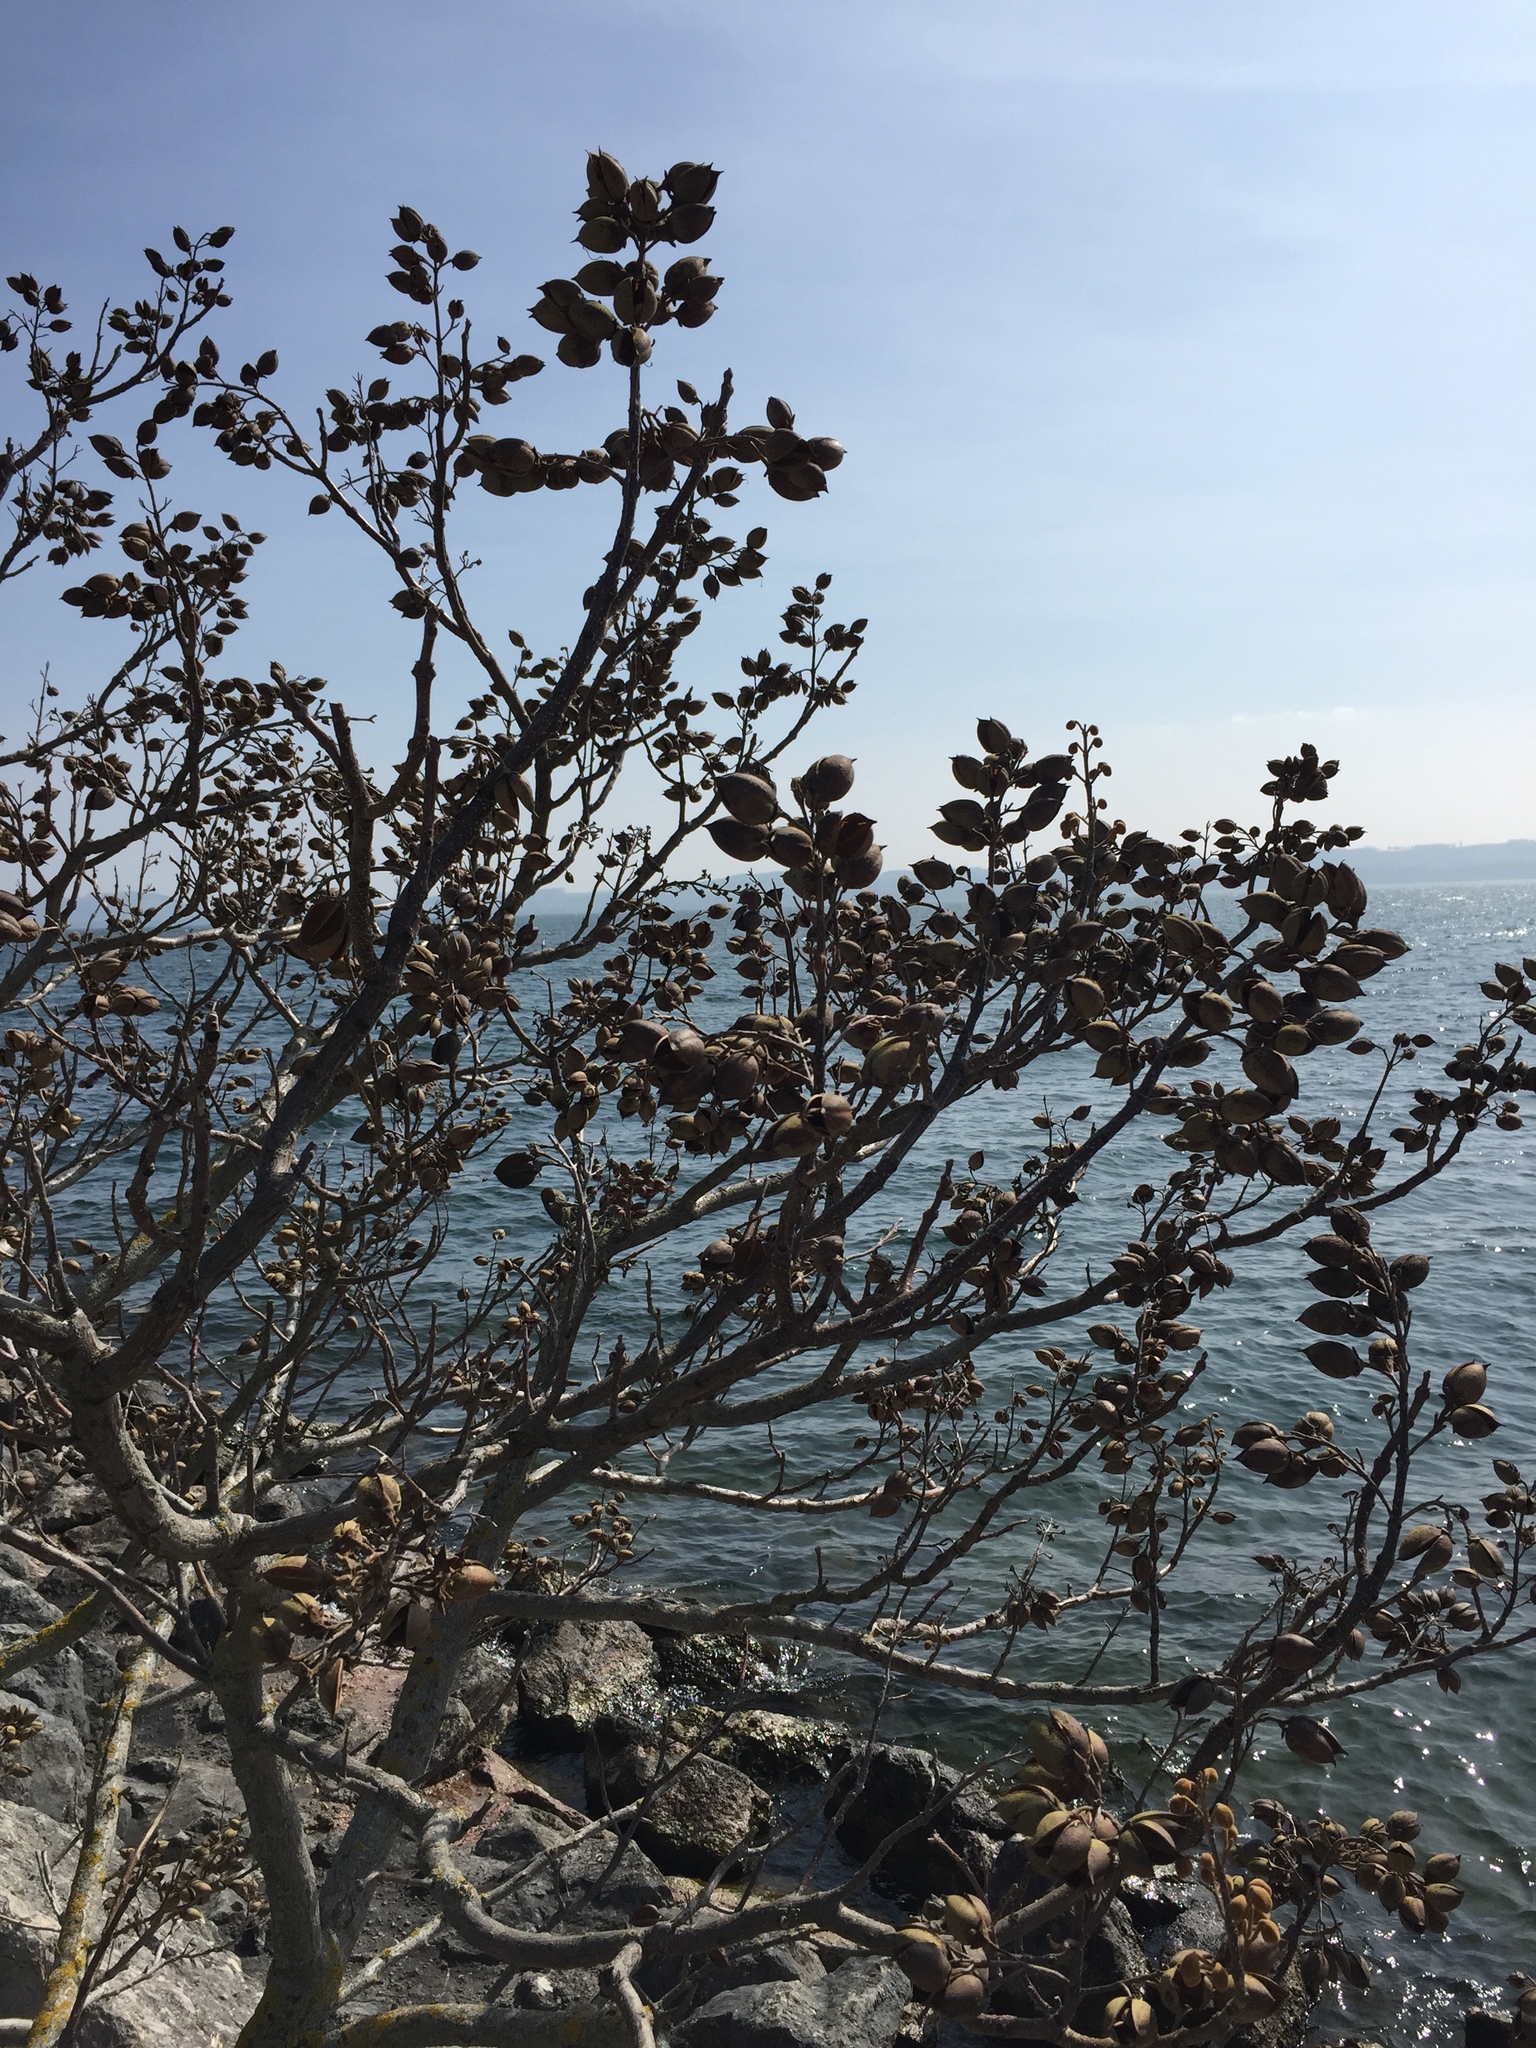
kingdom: Plantae
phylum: Tracheophyta
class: Magnoliopsida
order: Lamiales
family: Paulowniaceae
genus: Paulownia
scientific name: Paulownia tomentosa
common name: Foxglove-tree
